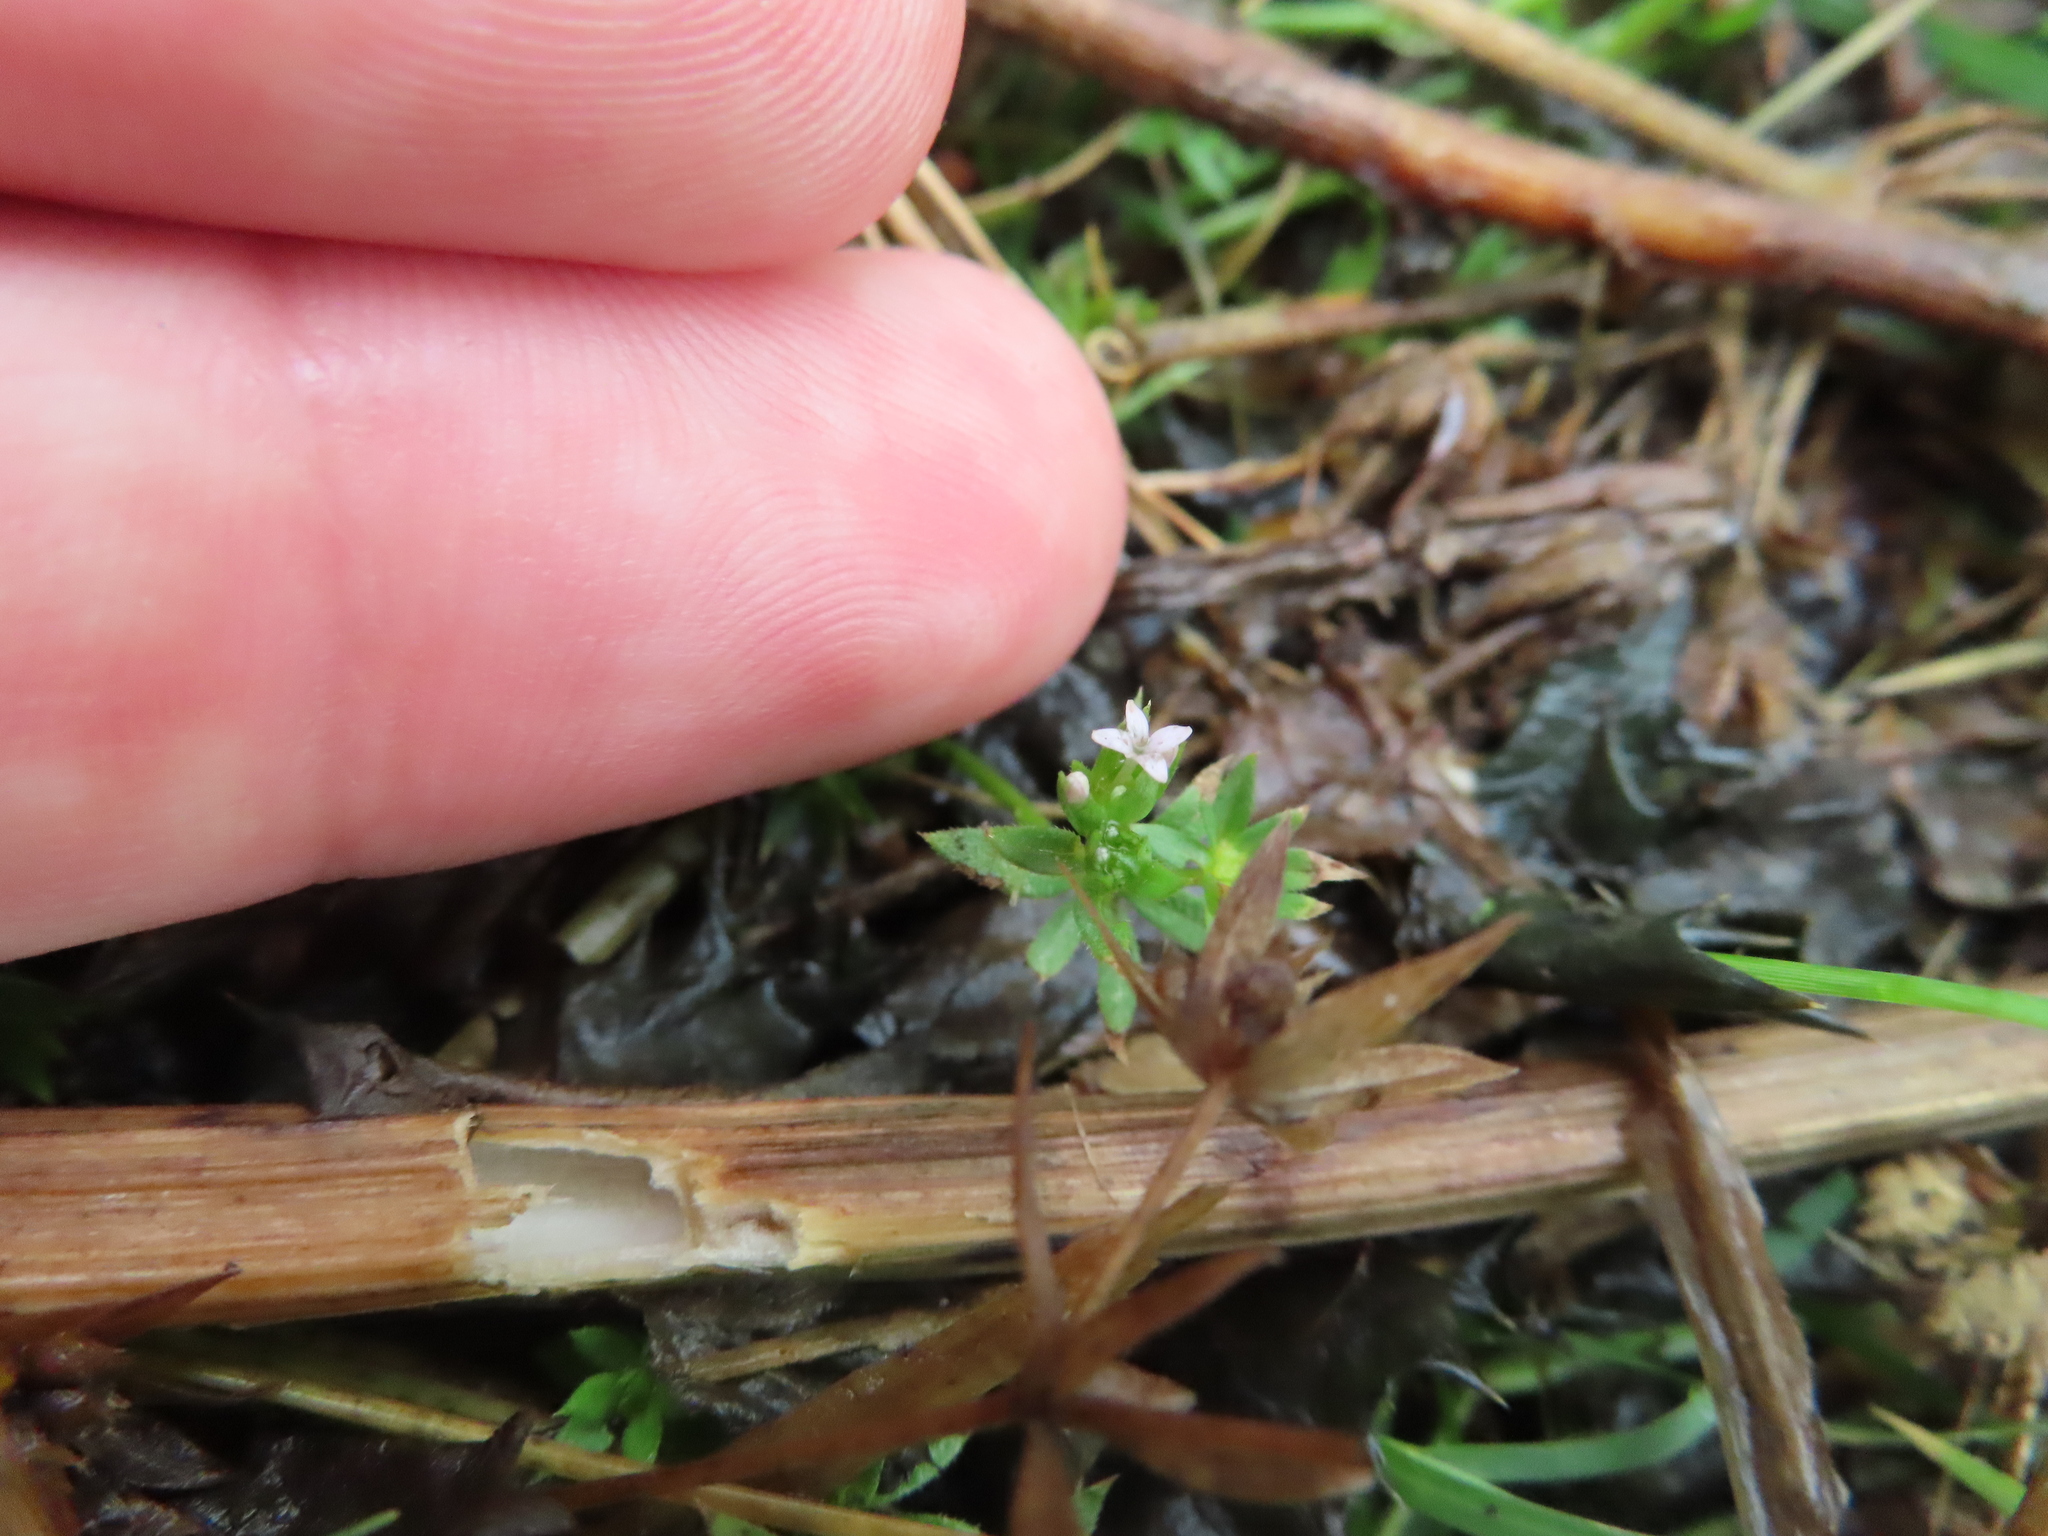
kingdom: Plantae
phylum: Tracheophyta
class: Magnoliopsida
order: Gentianales
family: Rubiaceae
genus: Sherardia
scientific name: Sherardia arvensis
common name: Field madder
